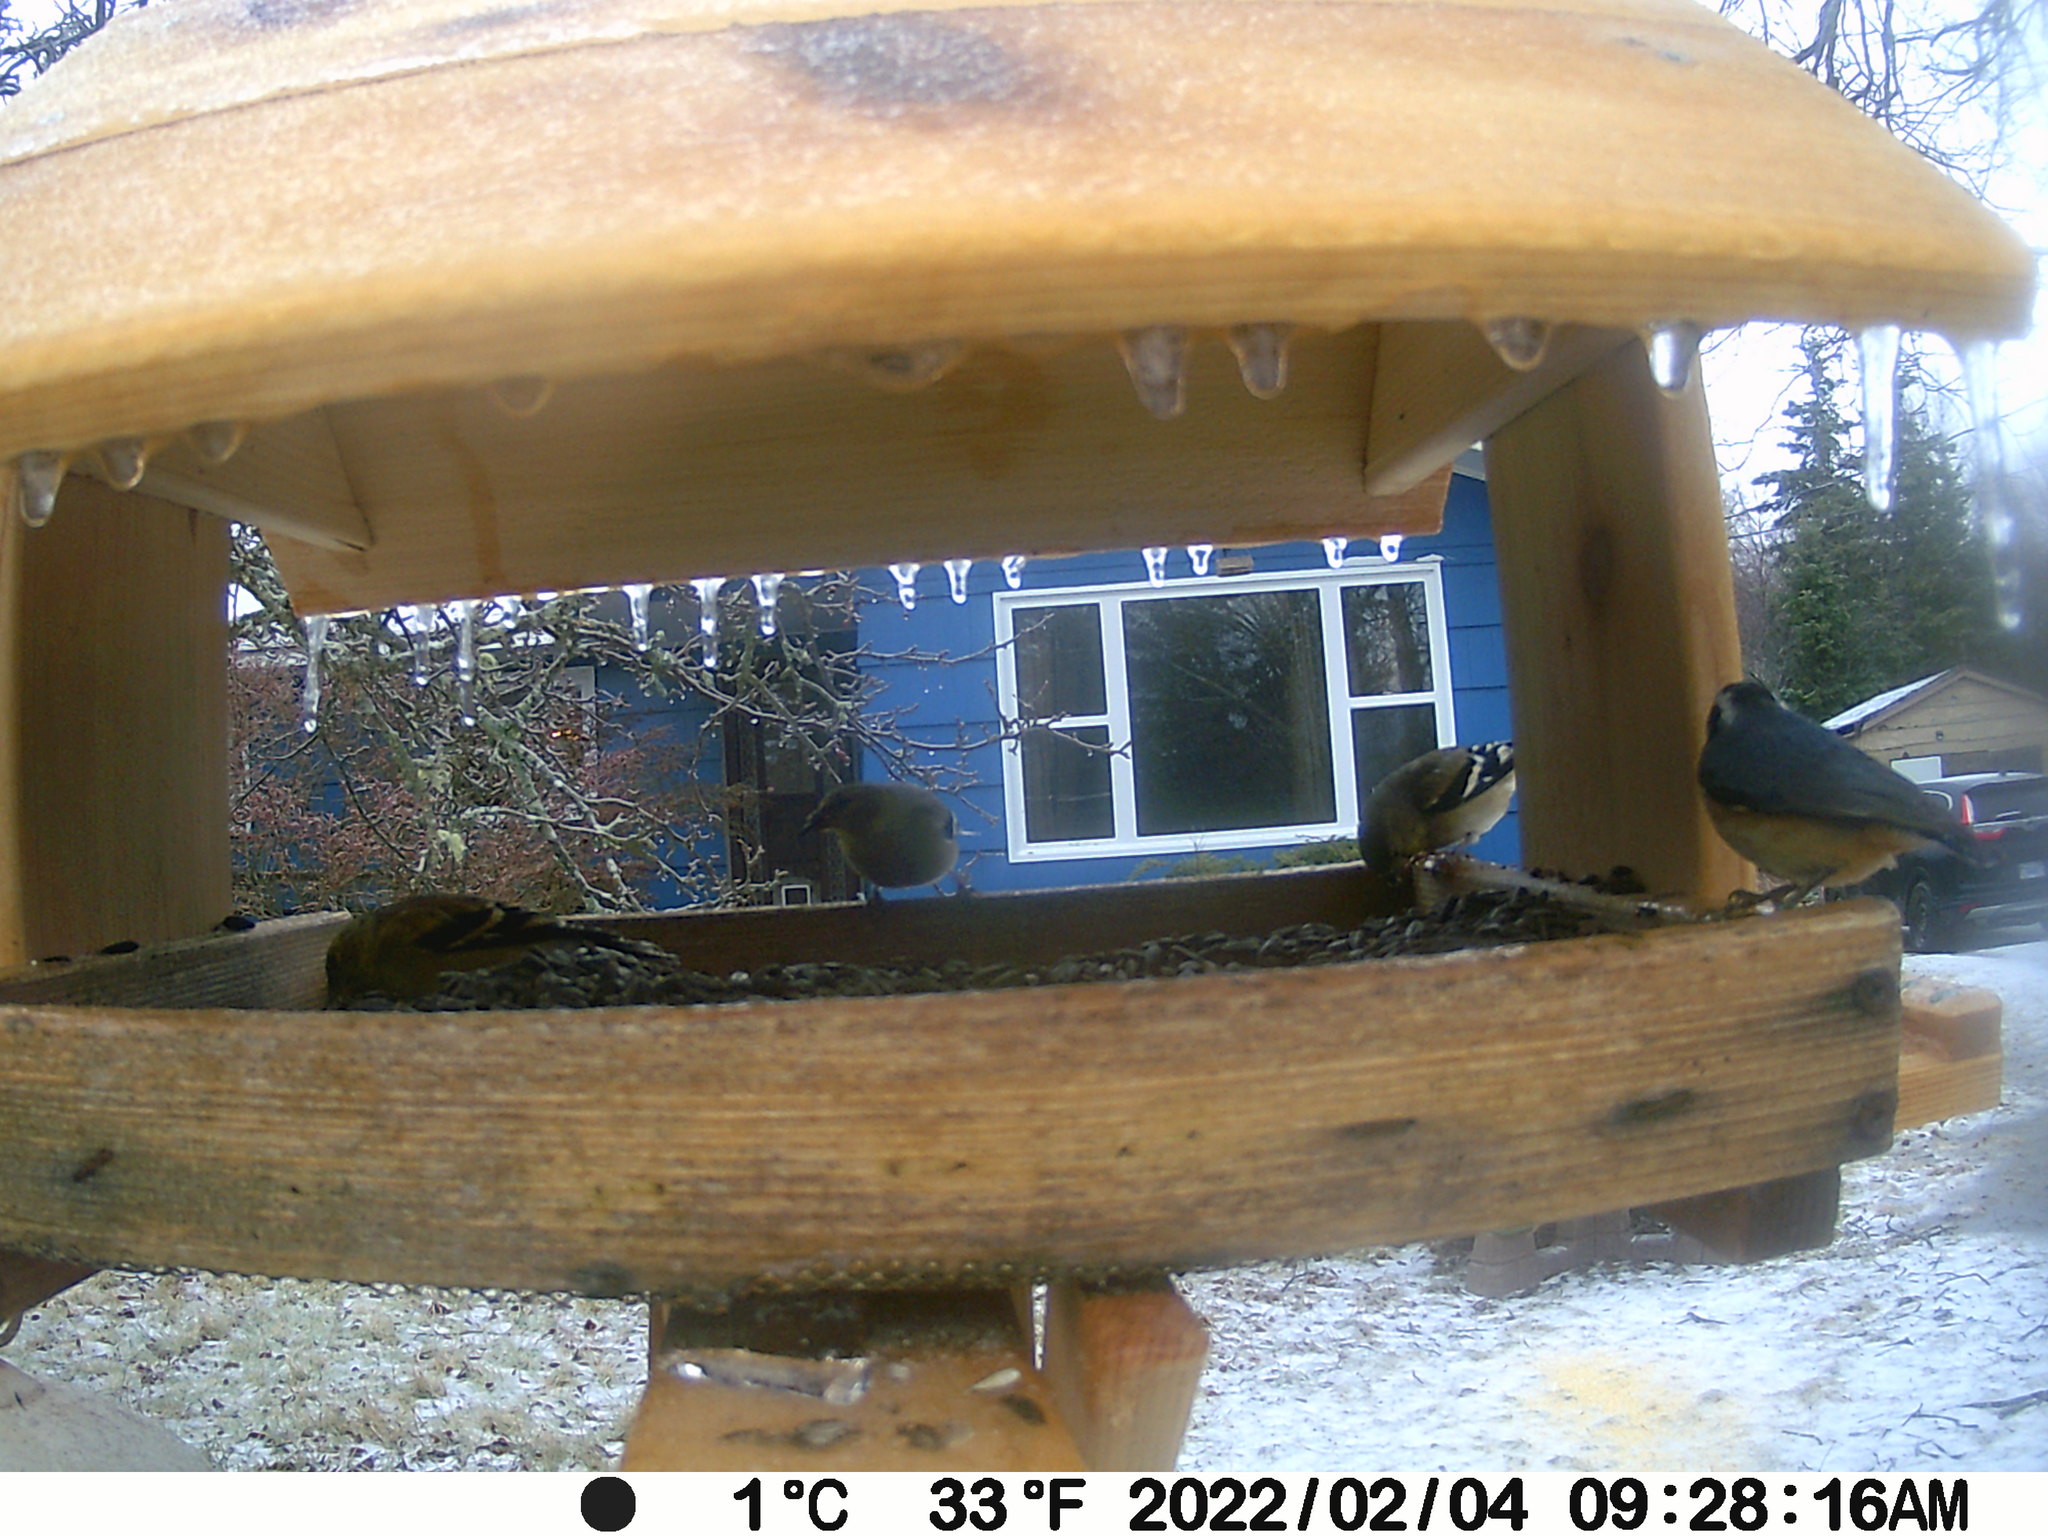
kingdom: Animalia
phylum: Chordata
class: Aves
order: Passeriformes
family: Sittidae
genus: Sitta
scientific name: Sitta canadensis
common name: Red-breasted nuthatch
